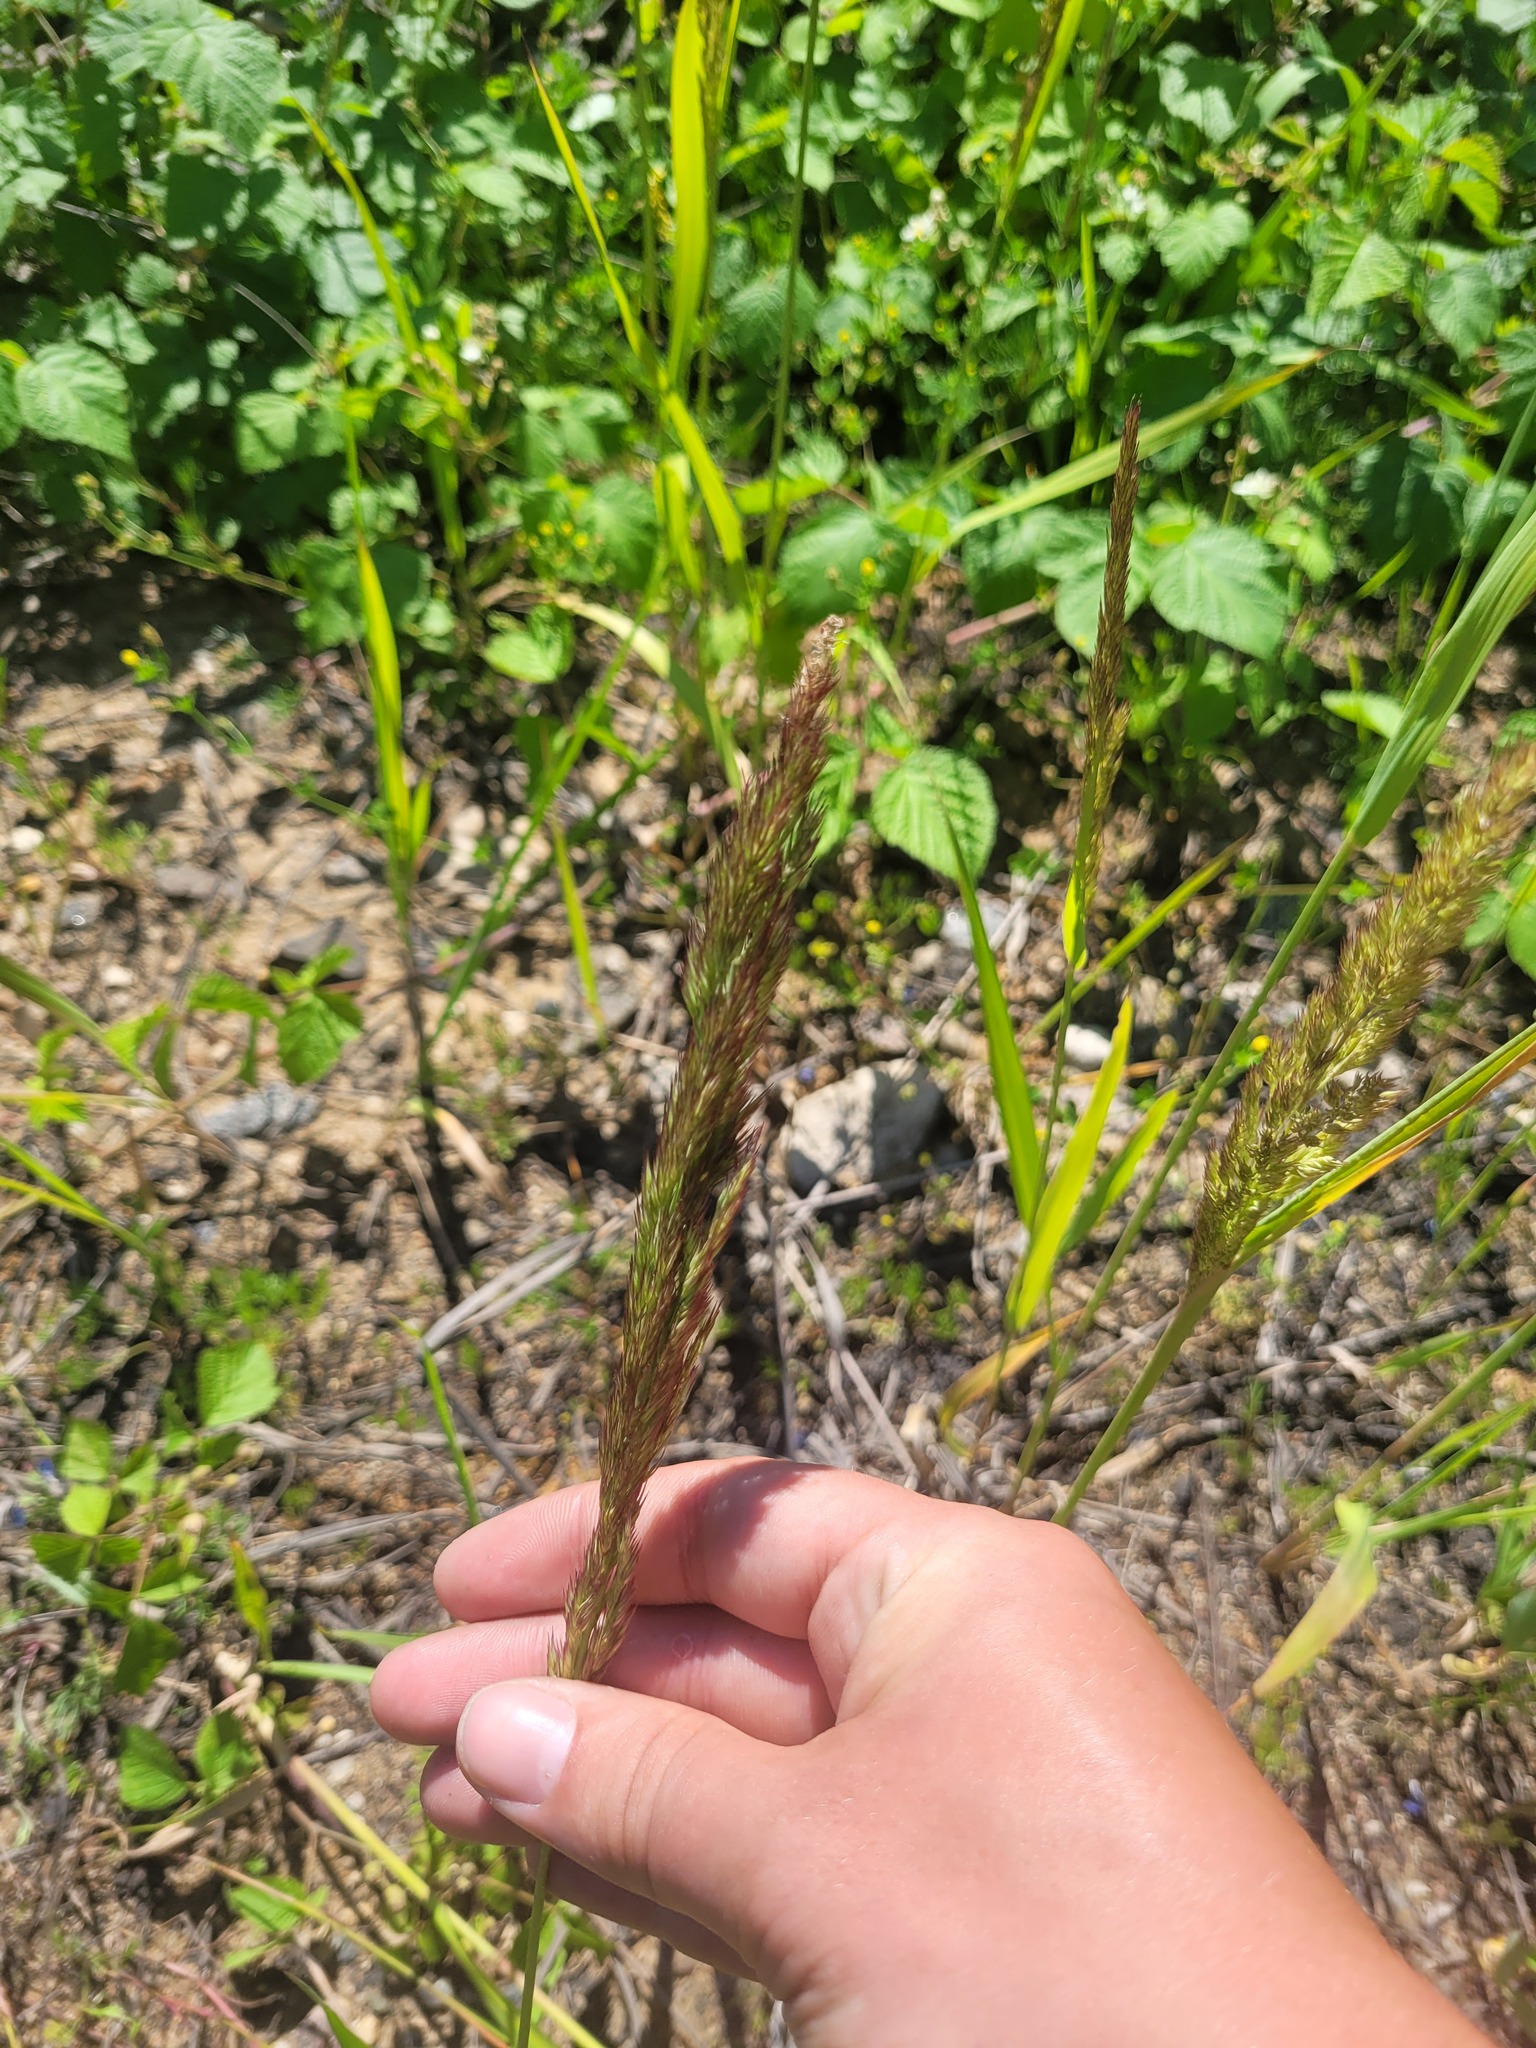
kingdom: Plantae
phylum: Tracheophyta
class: Liliopsida
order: Poales
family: Poaceae
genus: Calamagrostis
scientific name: Calamagrostis epigejos
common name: Wood small-reed
